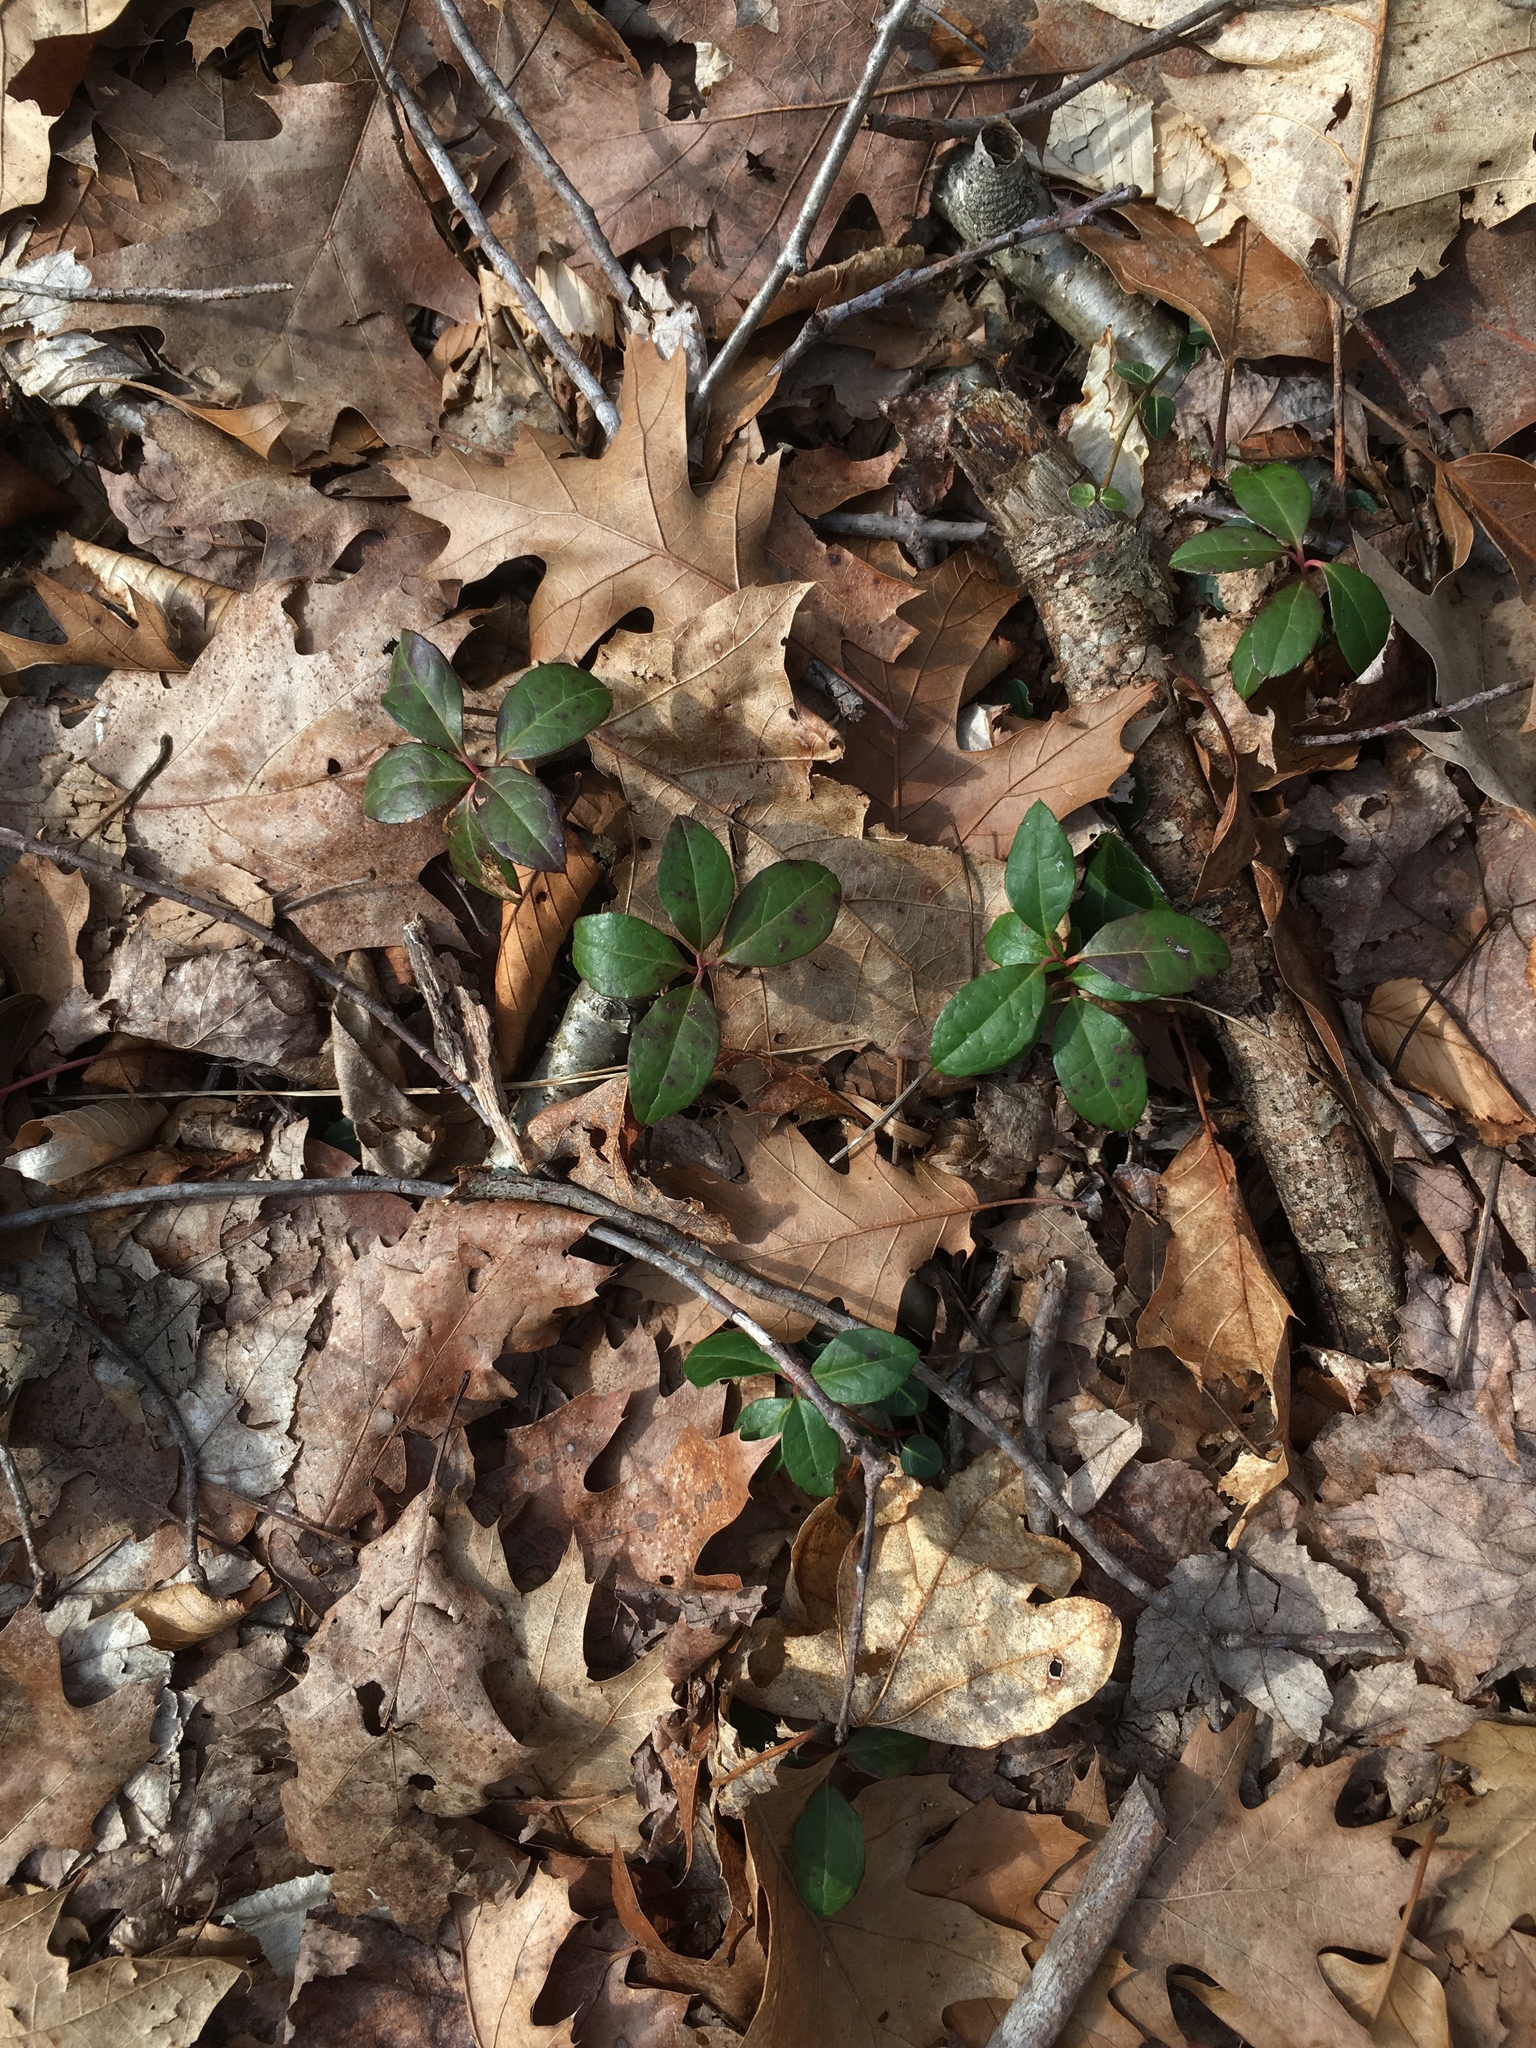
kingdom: Plantae
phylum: Tracheophyta
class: Magnoliopsida
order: Ericales
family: Ericaceae
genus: Gaultheria
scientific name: Gaultheria procumbens
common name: Checkerberry
